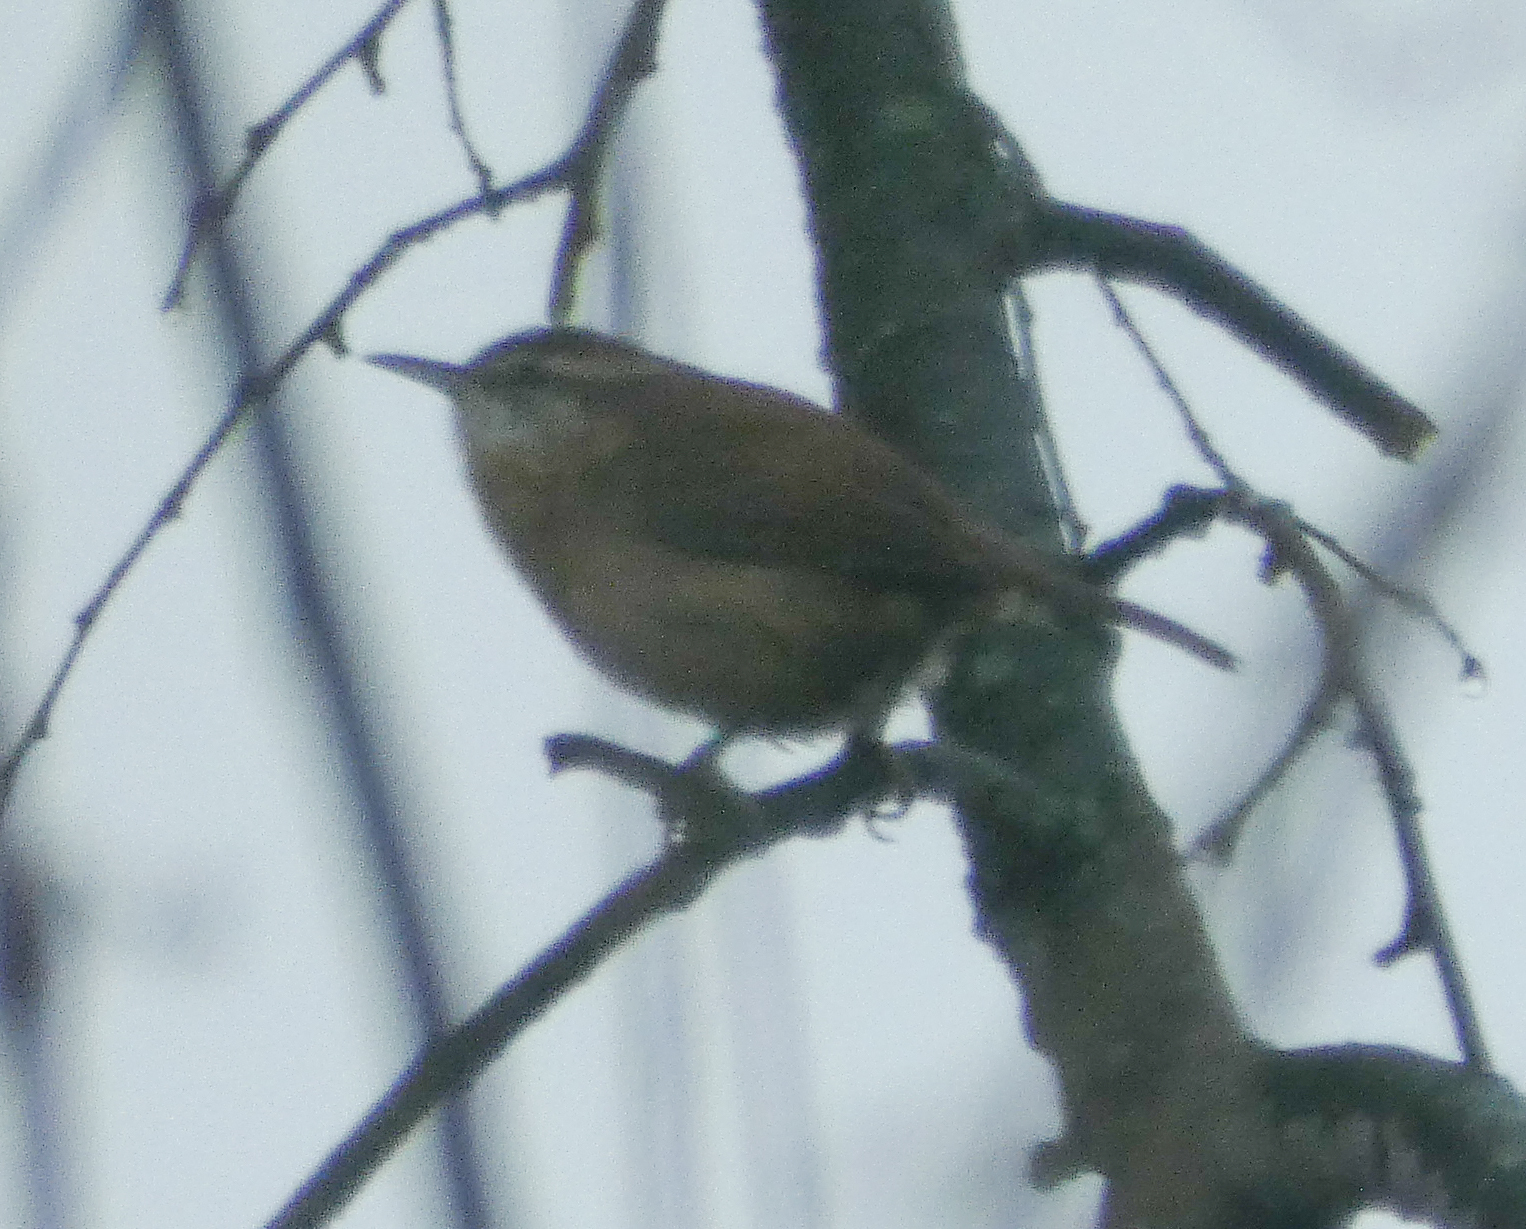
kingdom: Animalia
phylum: Chordata
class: Aves
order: Passeriformes
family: Troglodytidae
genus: Thryothorus
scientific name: Thryothorus ludovicianus
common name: Carolina wren
